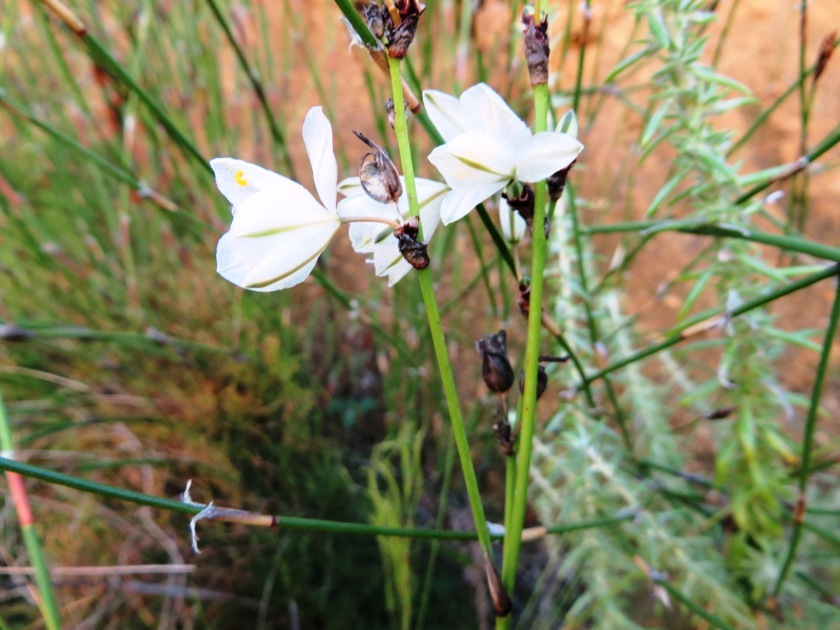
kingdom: Plantae
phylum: Tracheophyta
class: Liliopsida
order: Asparagales
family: Asparagaceae
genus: Chlorophytum
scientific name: Chlorophytum rigidum
